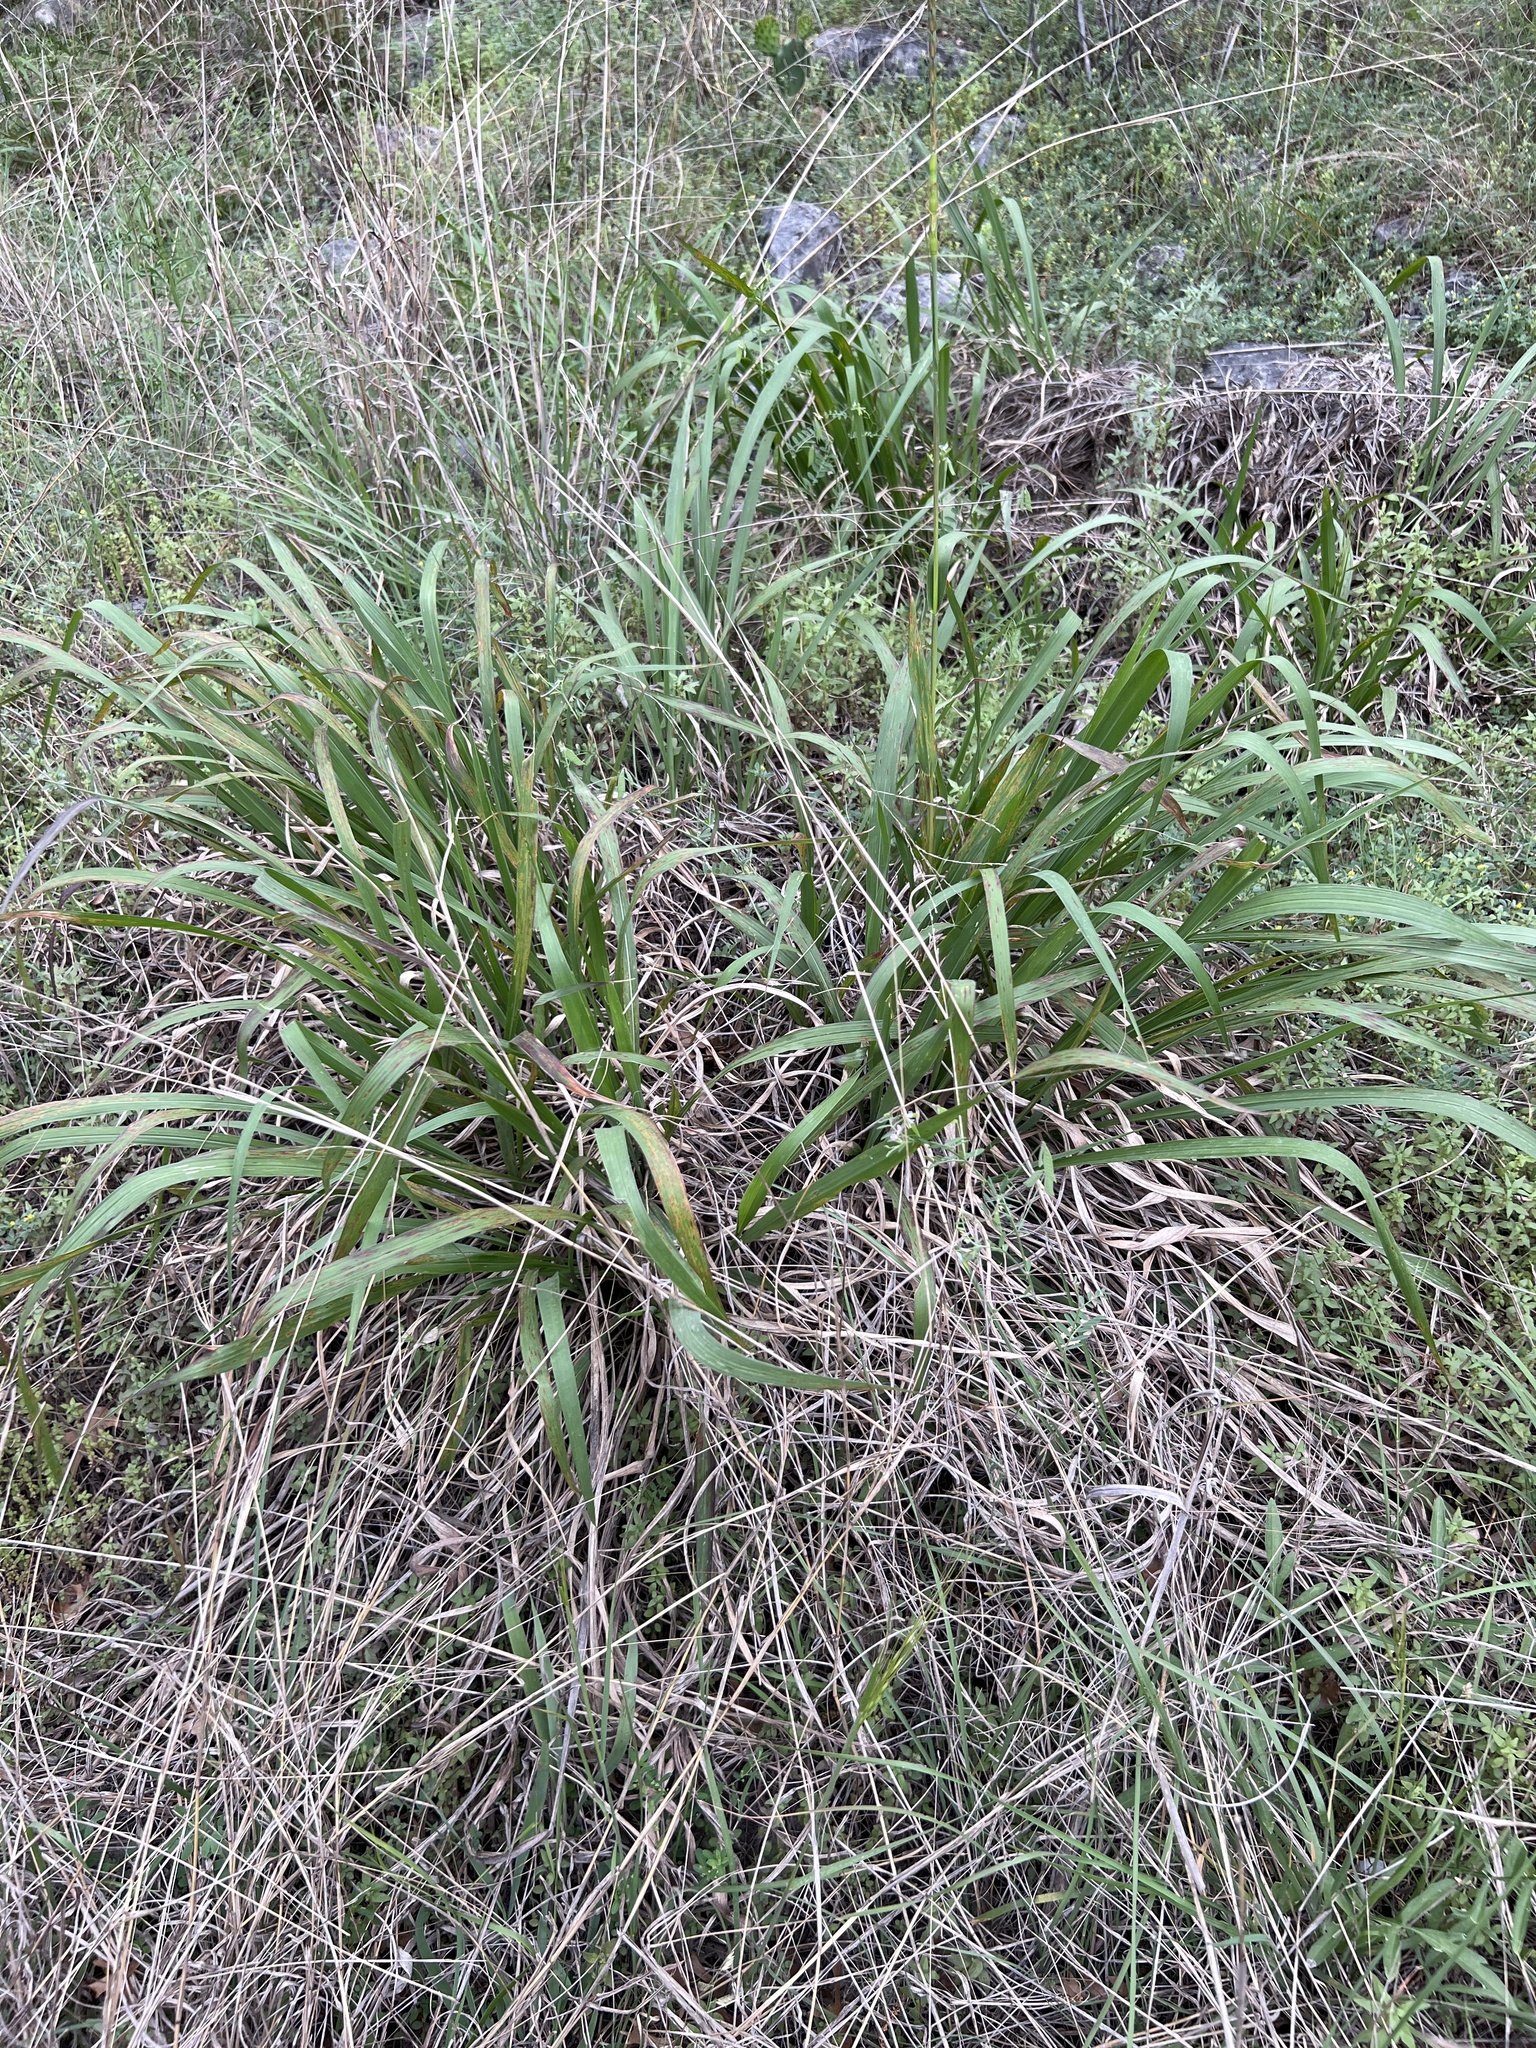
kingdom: Plantae
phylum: Tracheophyta
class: Liliopsida
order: Poales
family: Poaceae
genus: Tripsacum
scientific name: Tripsacum dactyloides
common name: Buffalo-grass
